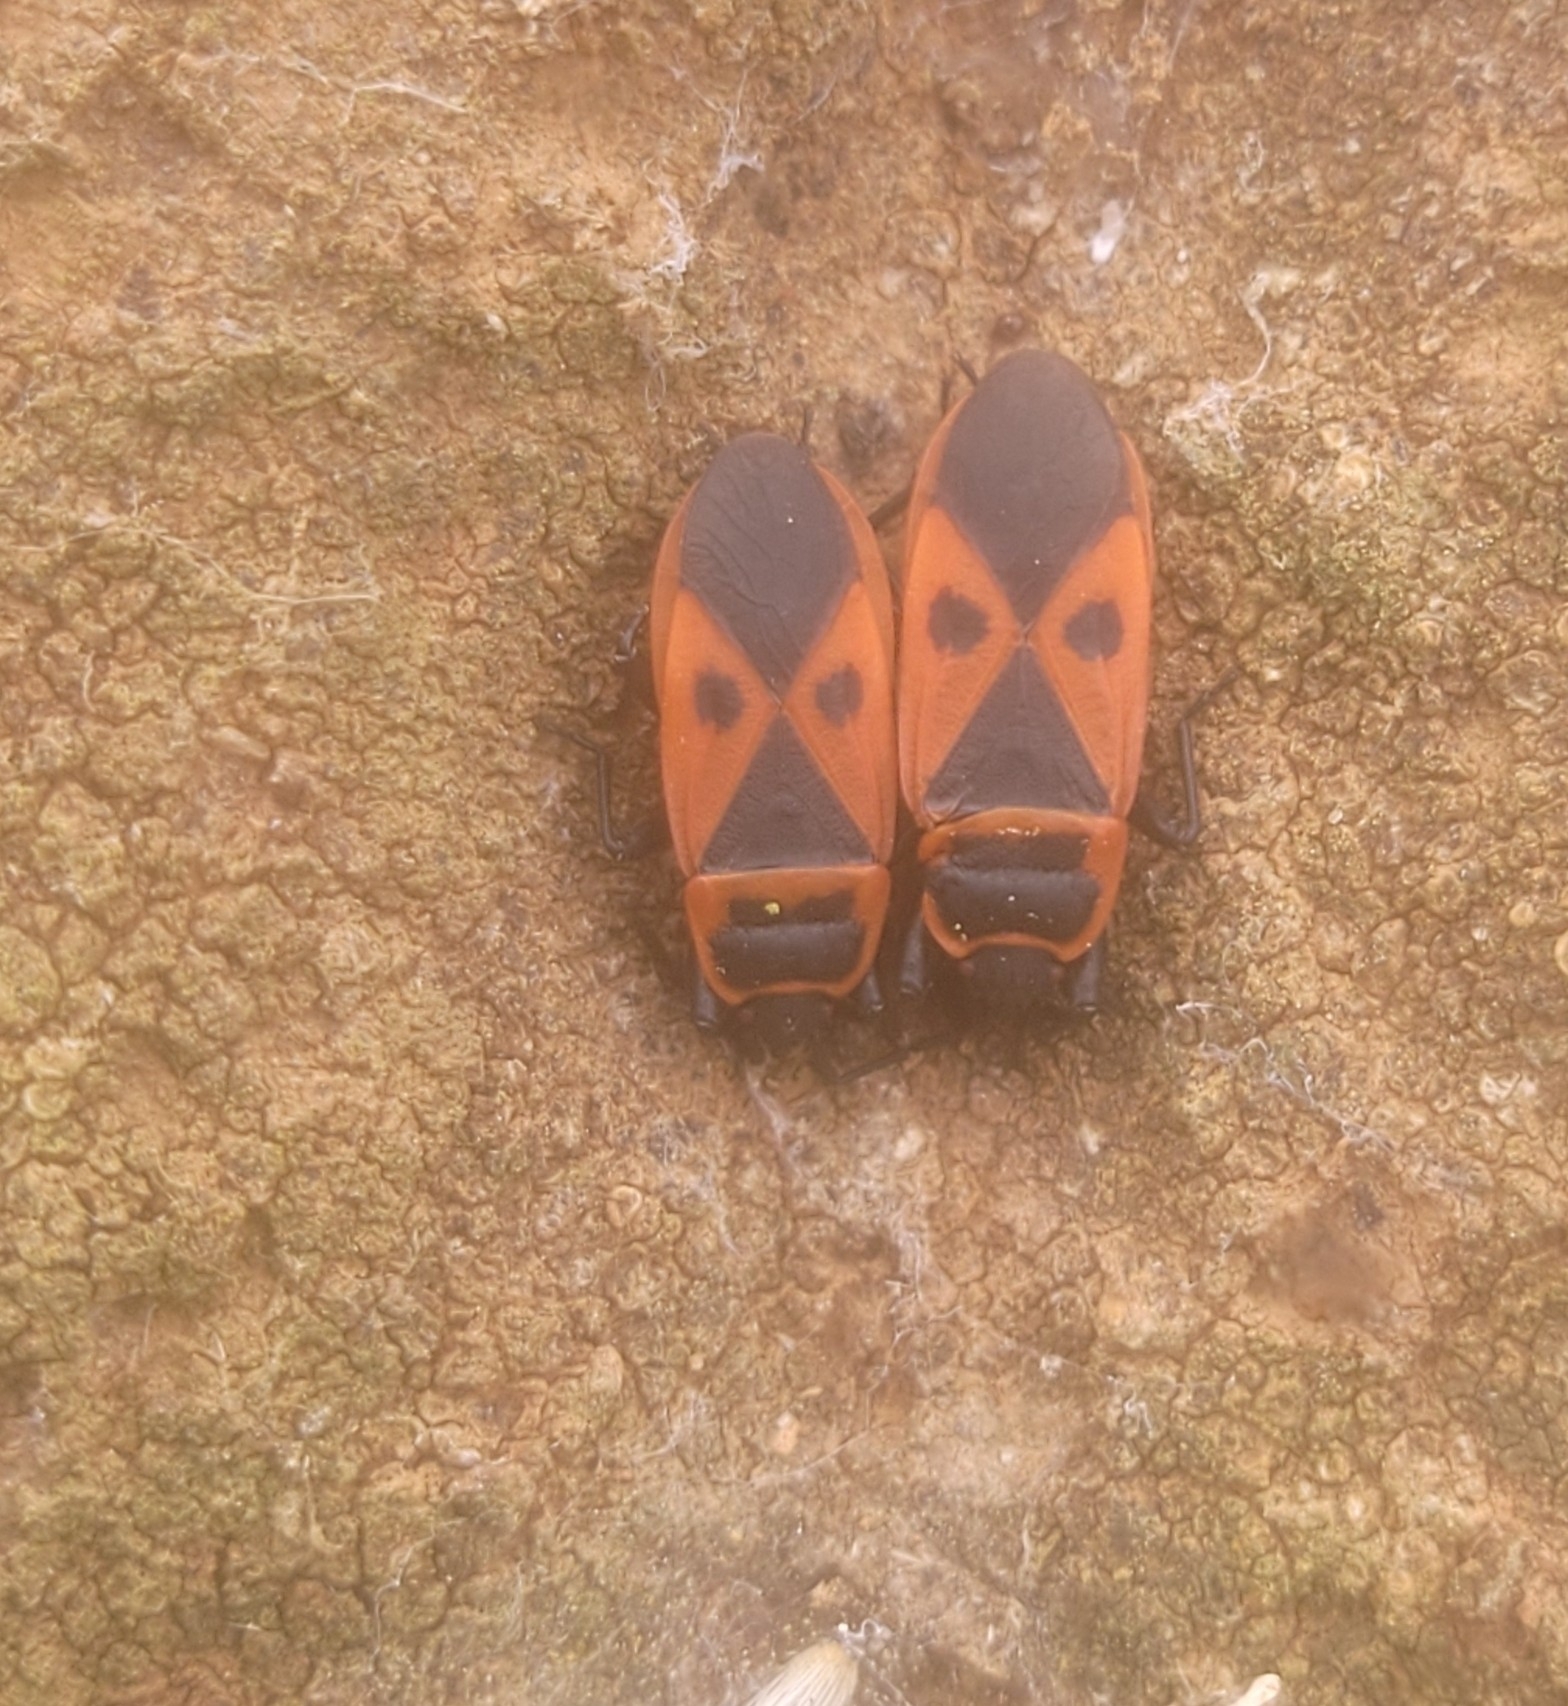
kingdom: Animalia
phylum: Arthropoda
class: Insecta
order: Hemiptera
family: Pyrrhocoridae
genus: Scantius
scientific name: Scantius aegyptius
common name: Red bug
